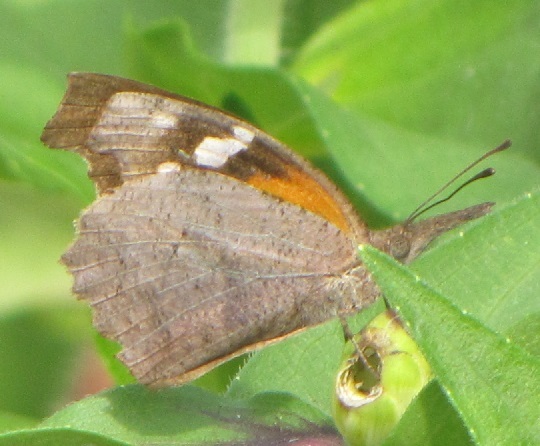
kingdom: Animalia
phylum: Arthropoda
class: Insecta
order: Lepidoptera
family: Nymphalidae
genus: Libytheana
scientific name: Libytheana carinenta
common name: American snout
